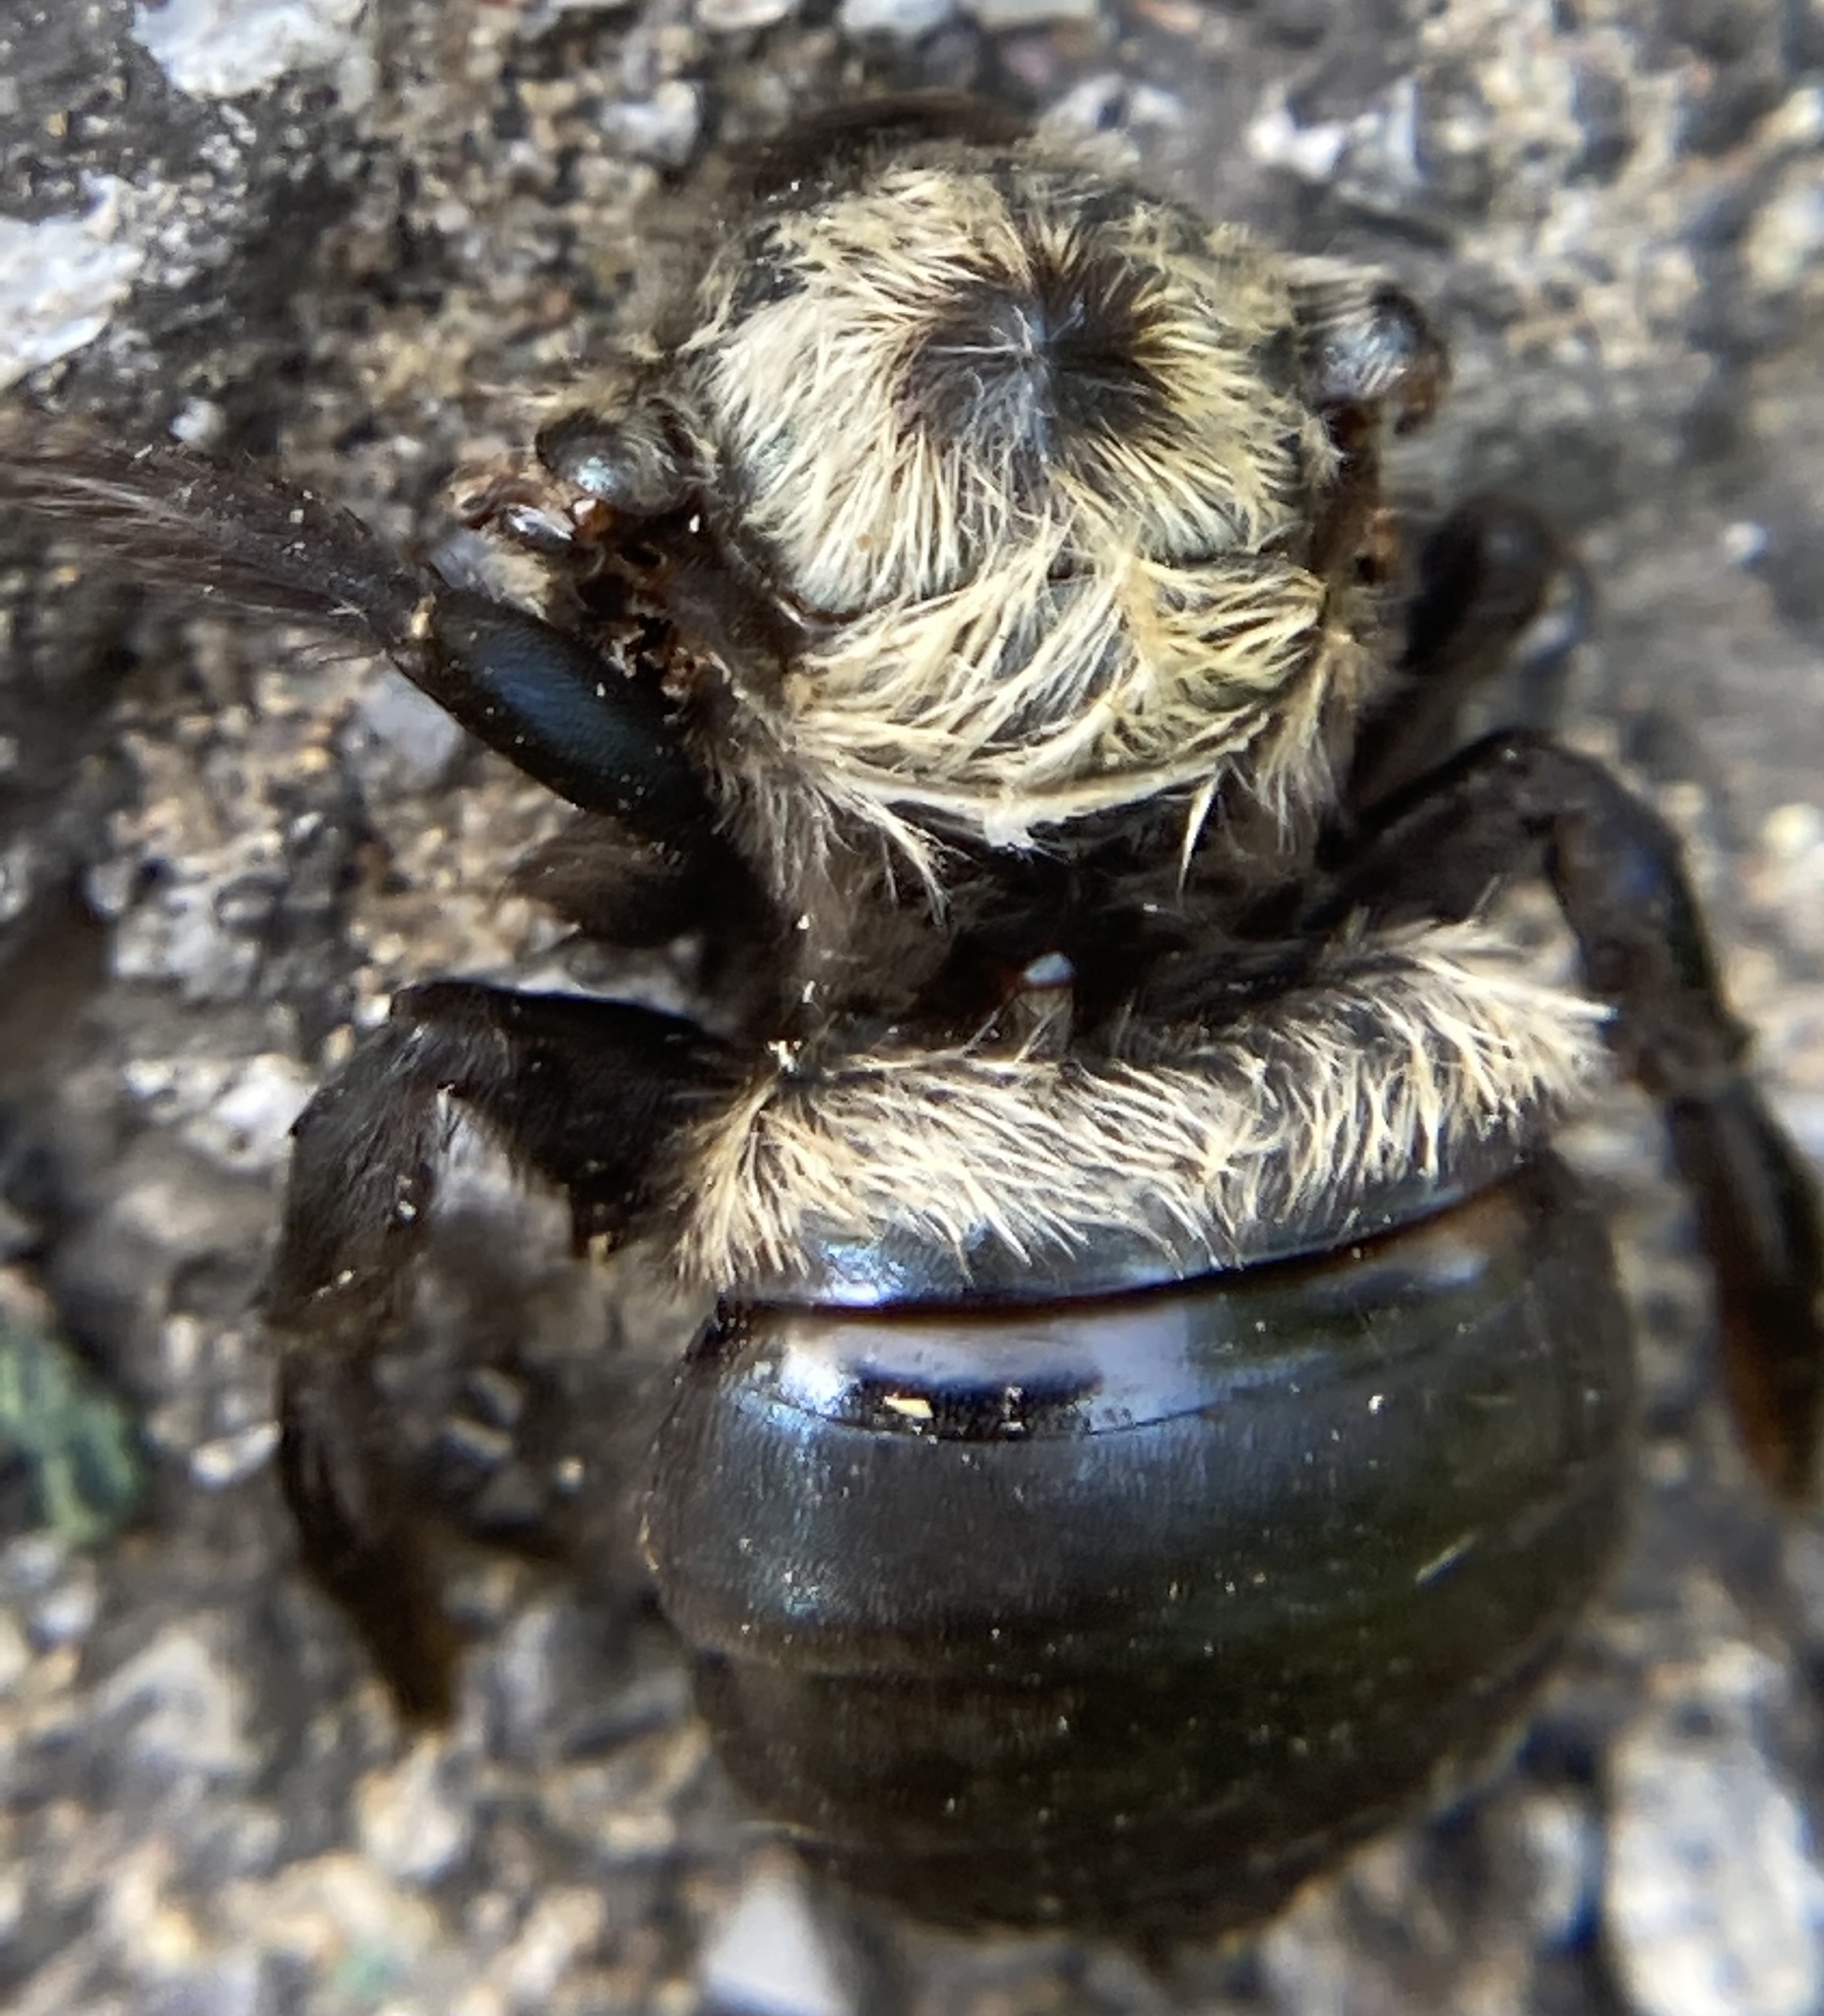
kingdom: Animalia
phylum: Arthropoda
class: Insecta
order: Hymenoptera
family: Apidae
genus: Xylocopa
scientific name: Xylocopa virginica
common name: Carpenter bee
